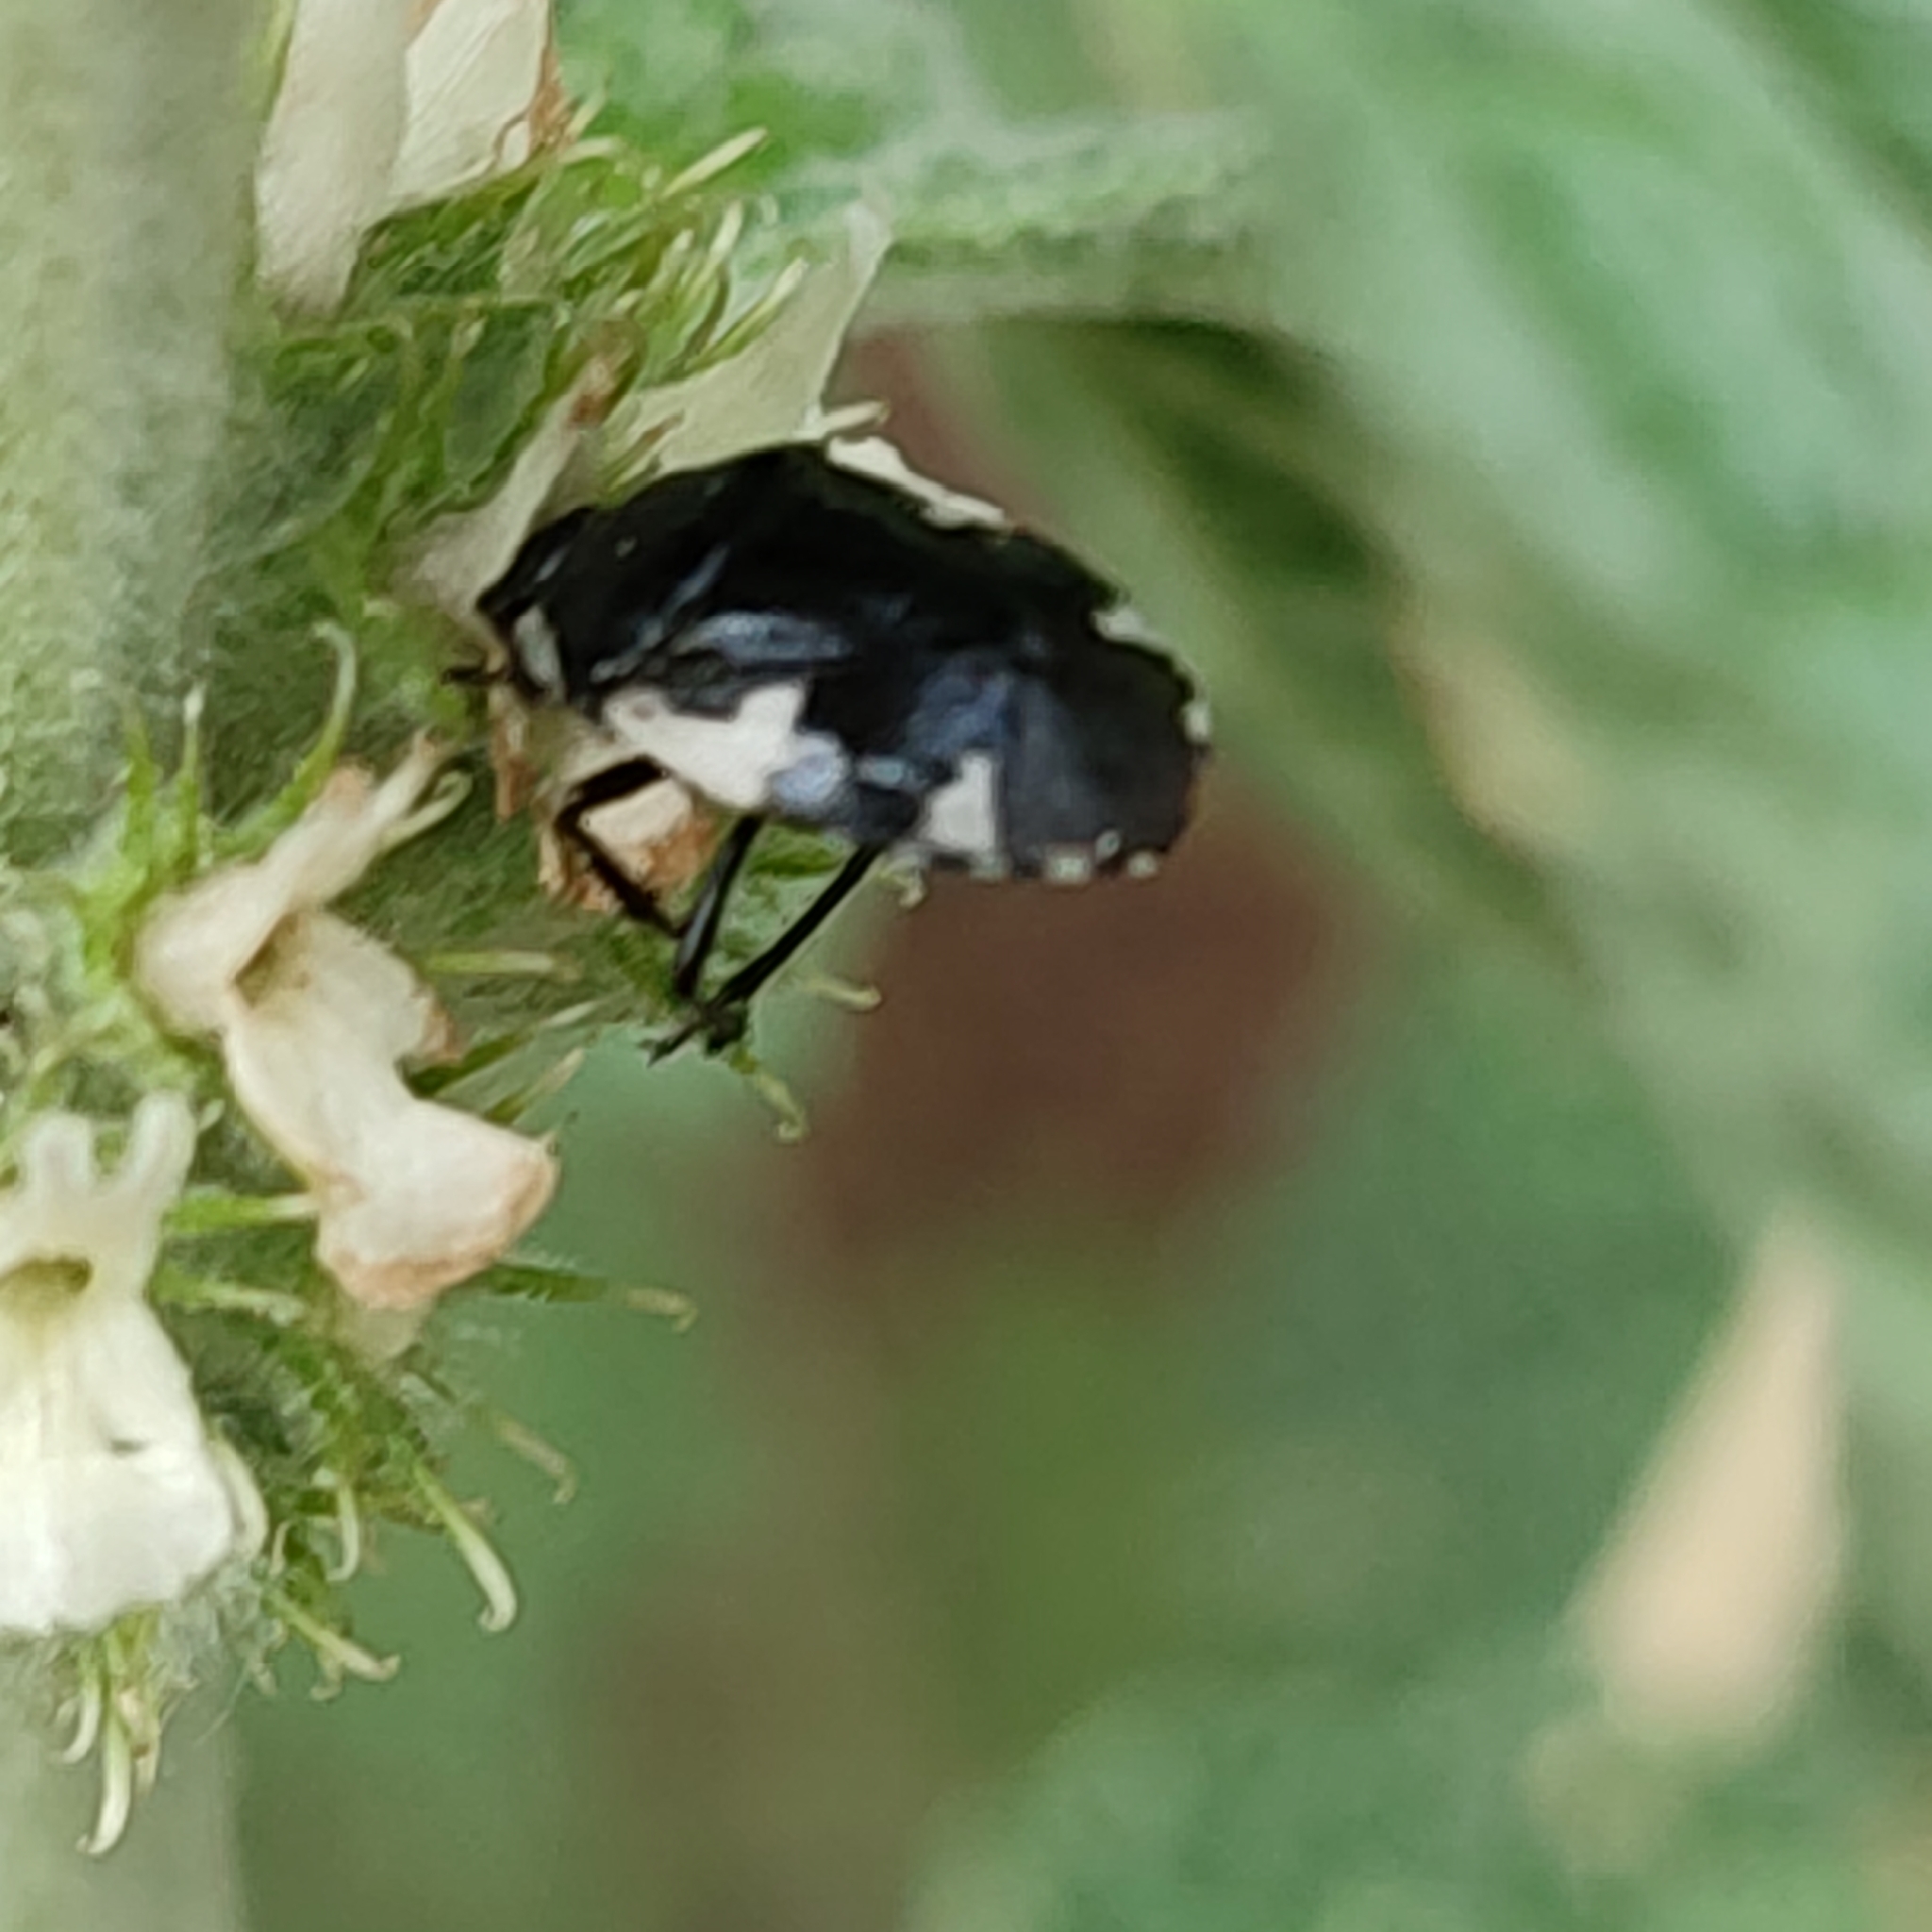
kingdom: Animalia
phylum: Arthropoda
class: Insecta
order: Hemiptera
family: Cydnidae
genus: Tritomegas
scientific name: Tritomegas sexmaculatus
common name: Rambur's pied shieldbug
